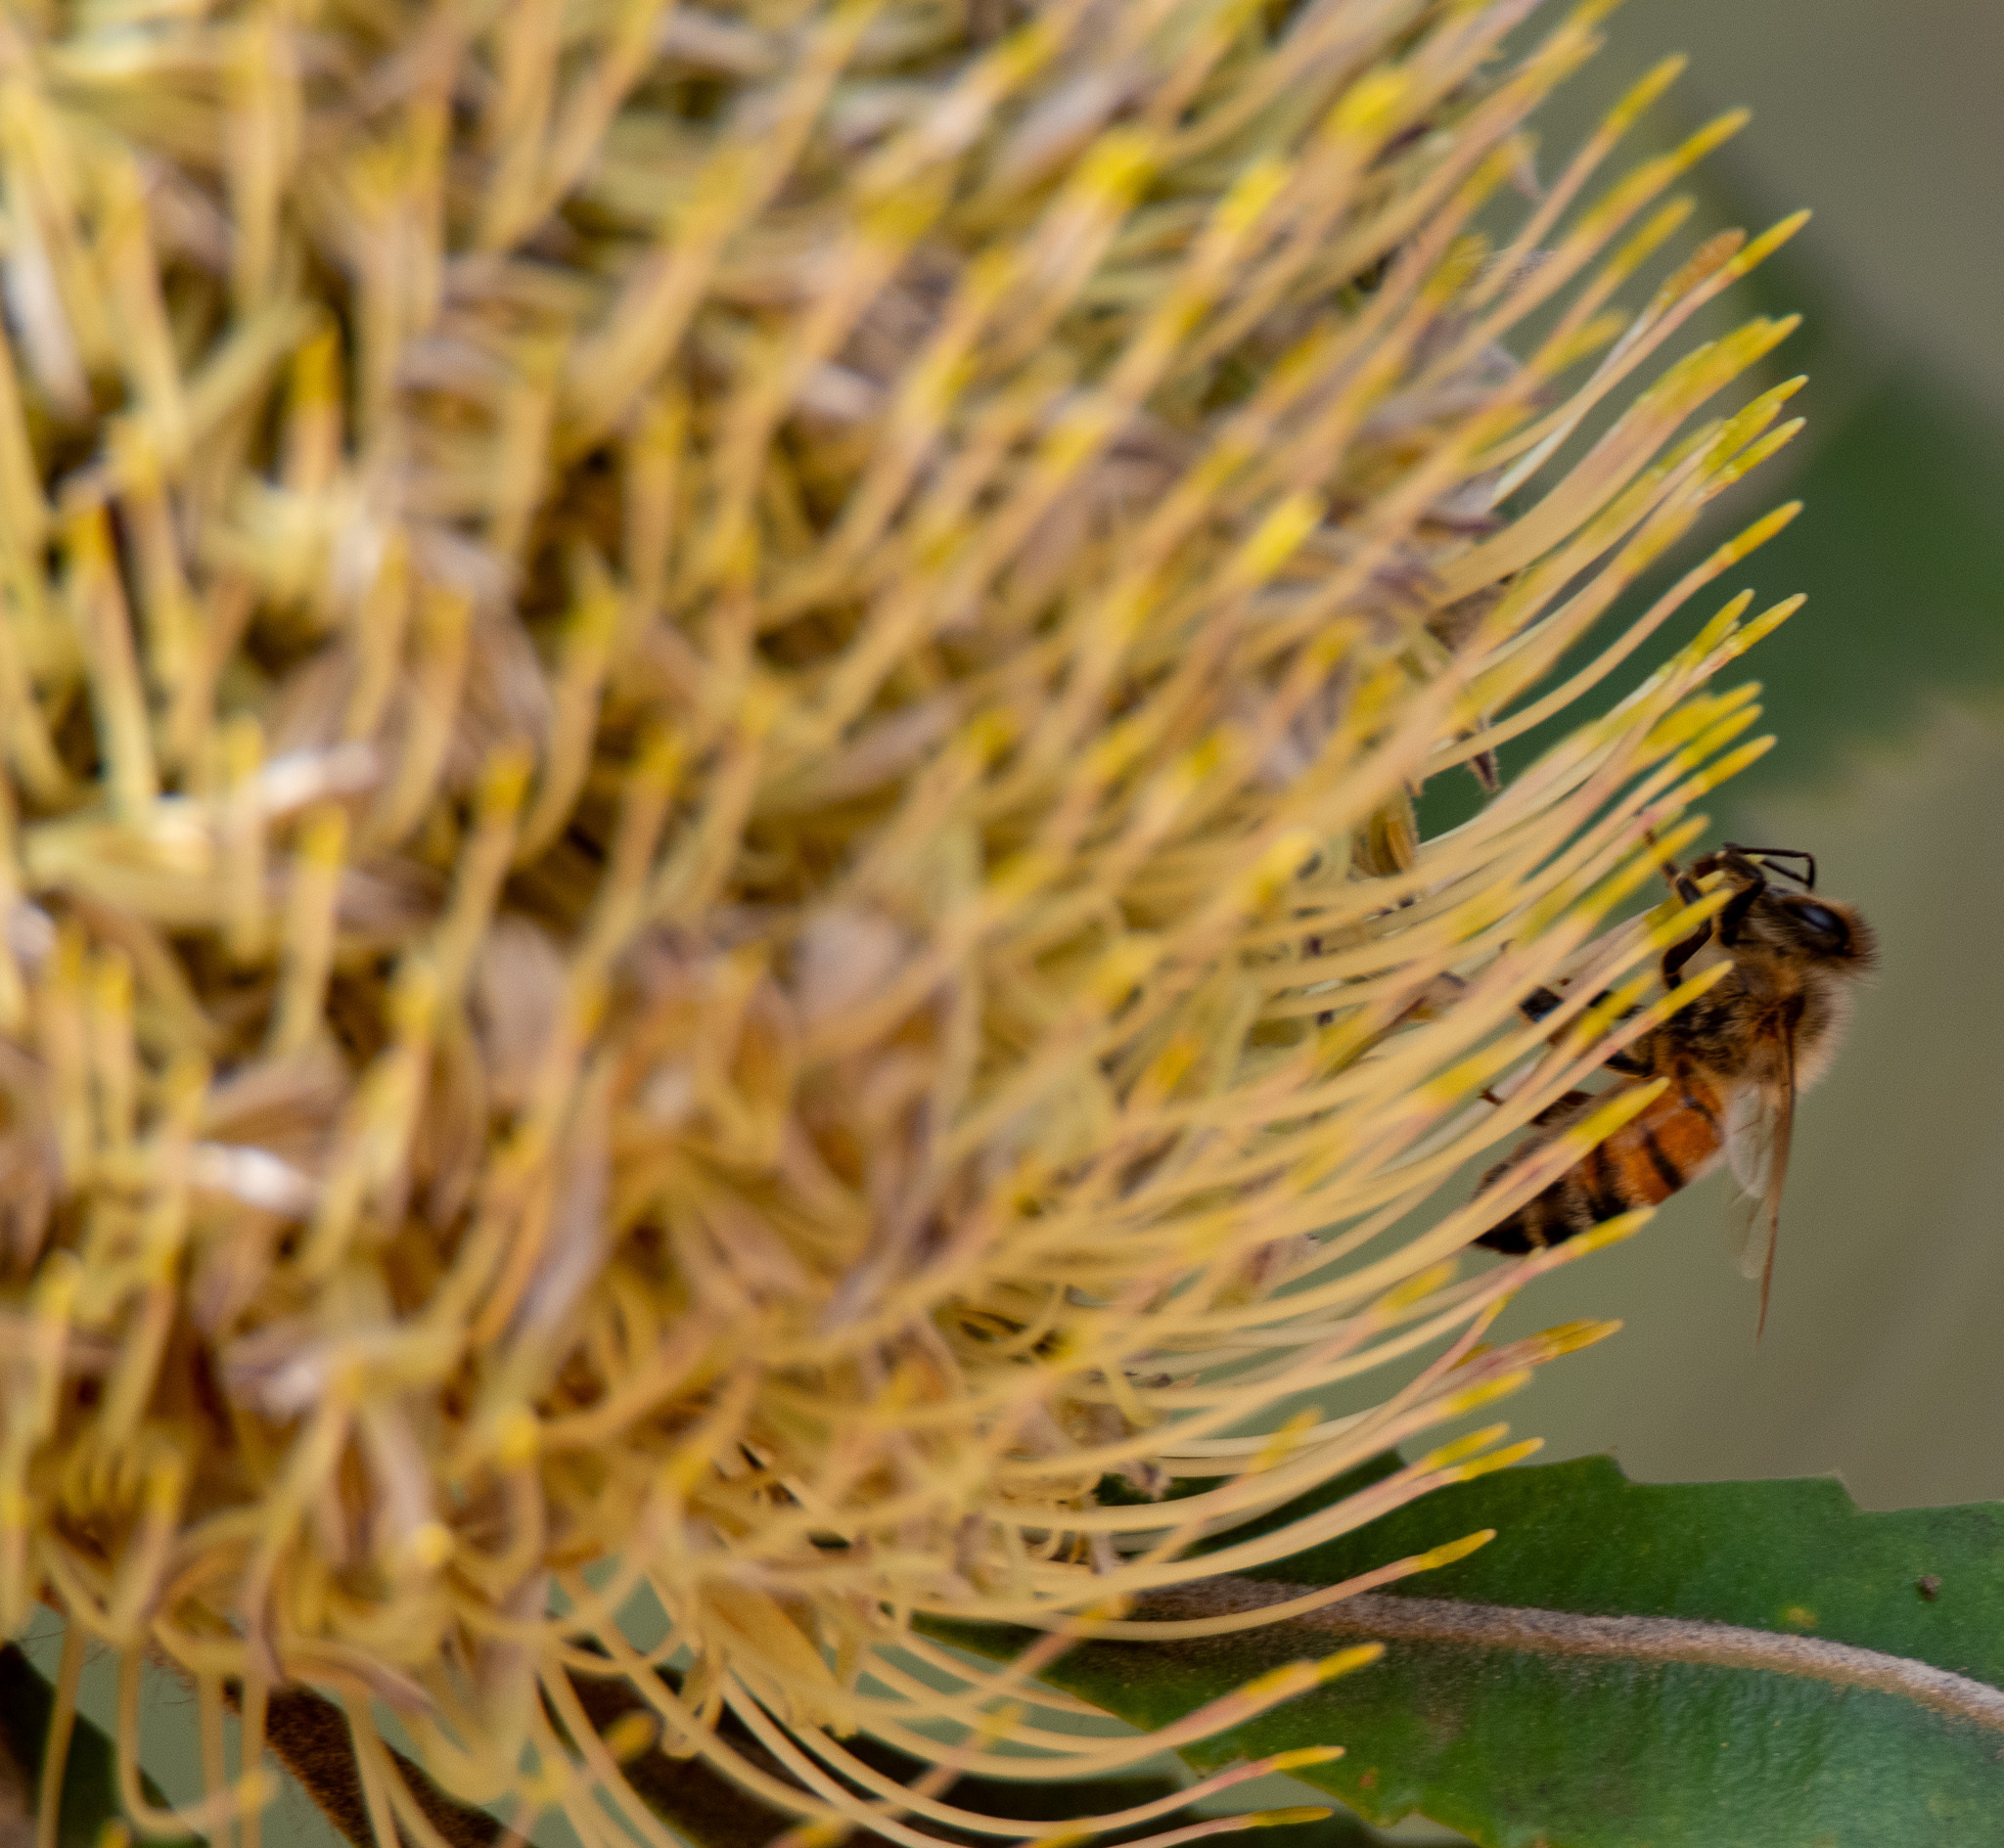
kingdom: Animalia
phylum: Arthropoda
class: Insecta
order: Hymenoptera
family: Apidae
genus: Apis
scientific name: Apis mellifera
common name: Honey bee
